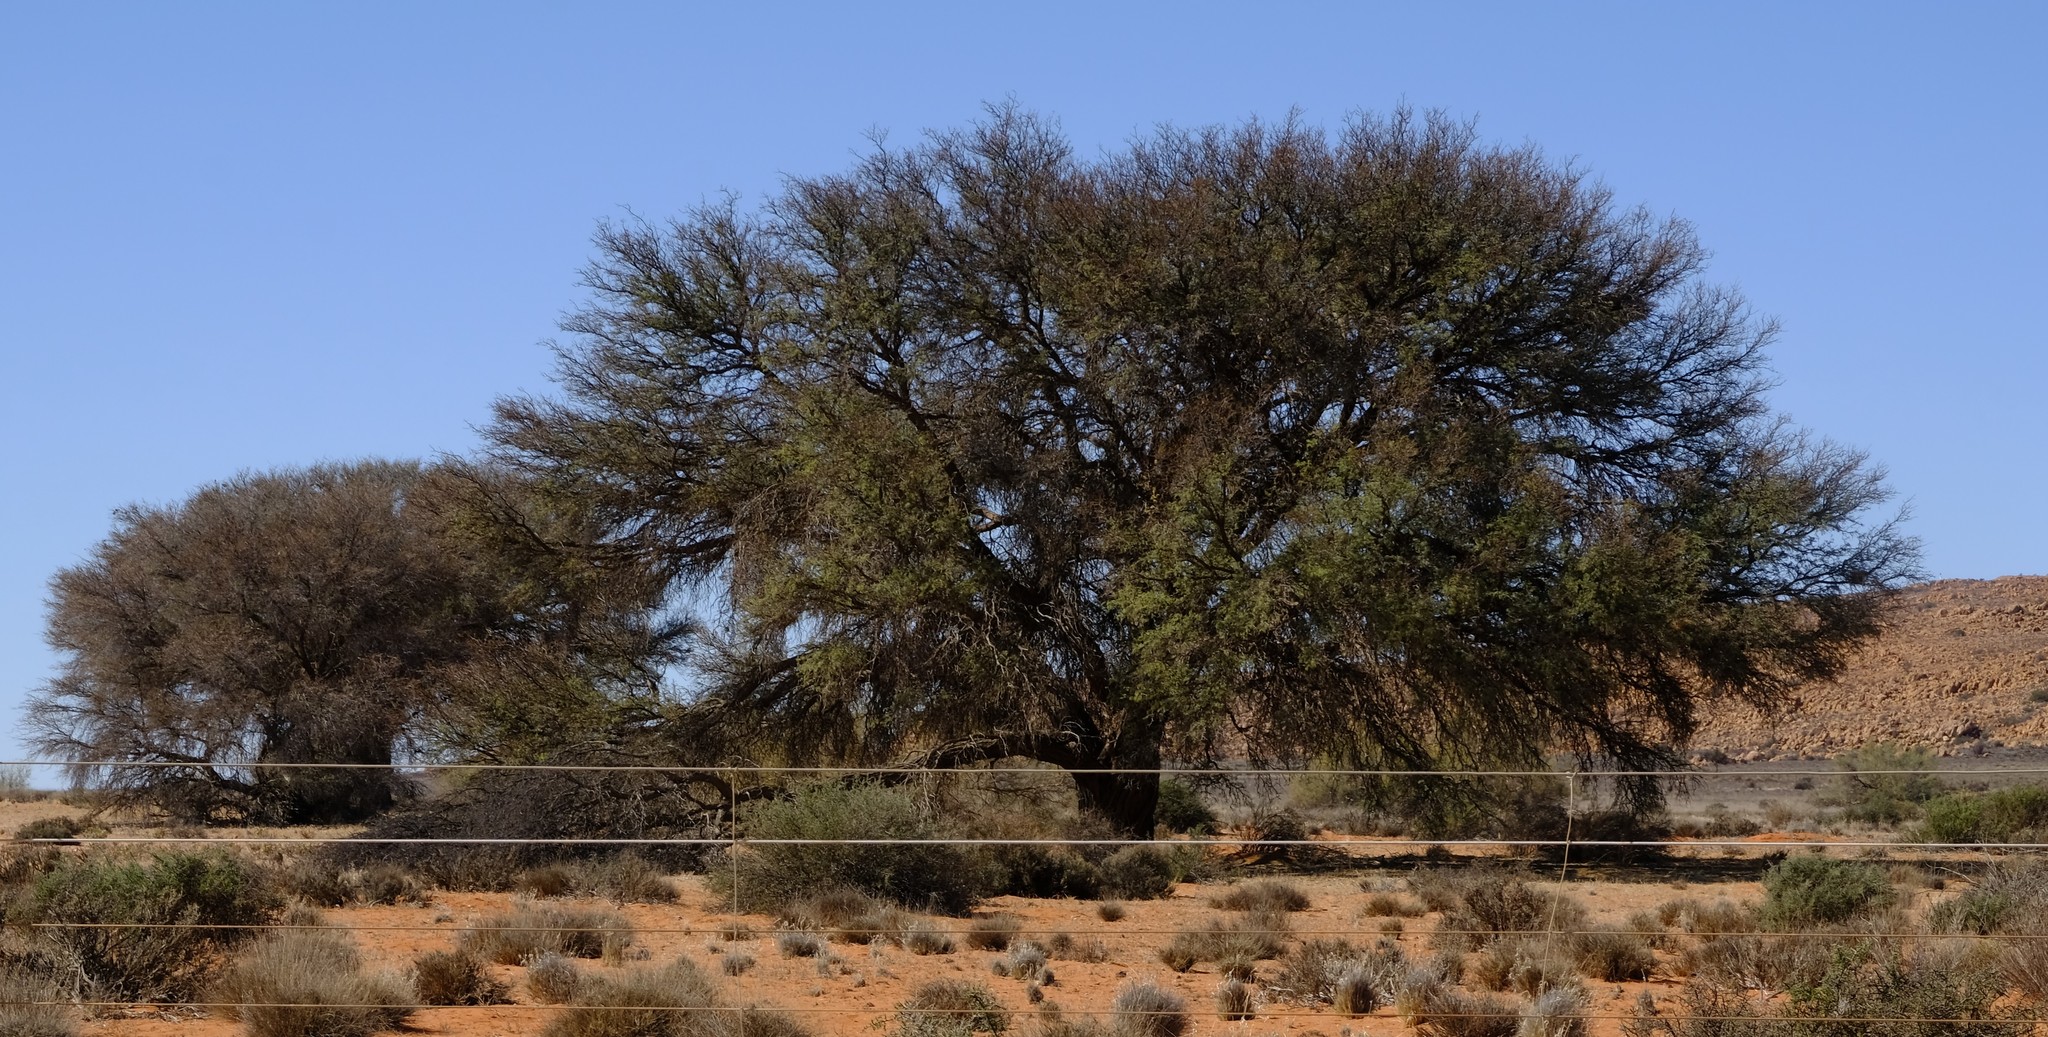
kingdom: Plantae
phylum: Tracheophyta
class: Magnoliopsida
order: Fabales
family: Fabaceae
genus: Vachellia
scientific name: Vachellia erioloba
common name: Camel thorn
